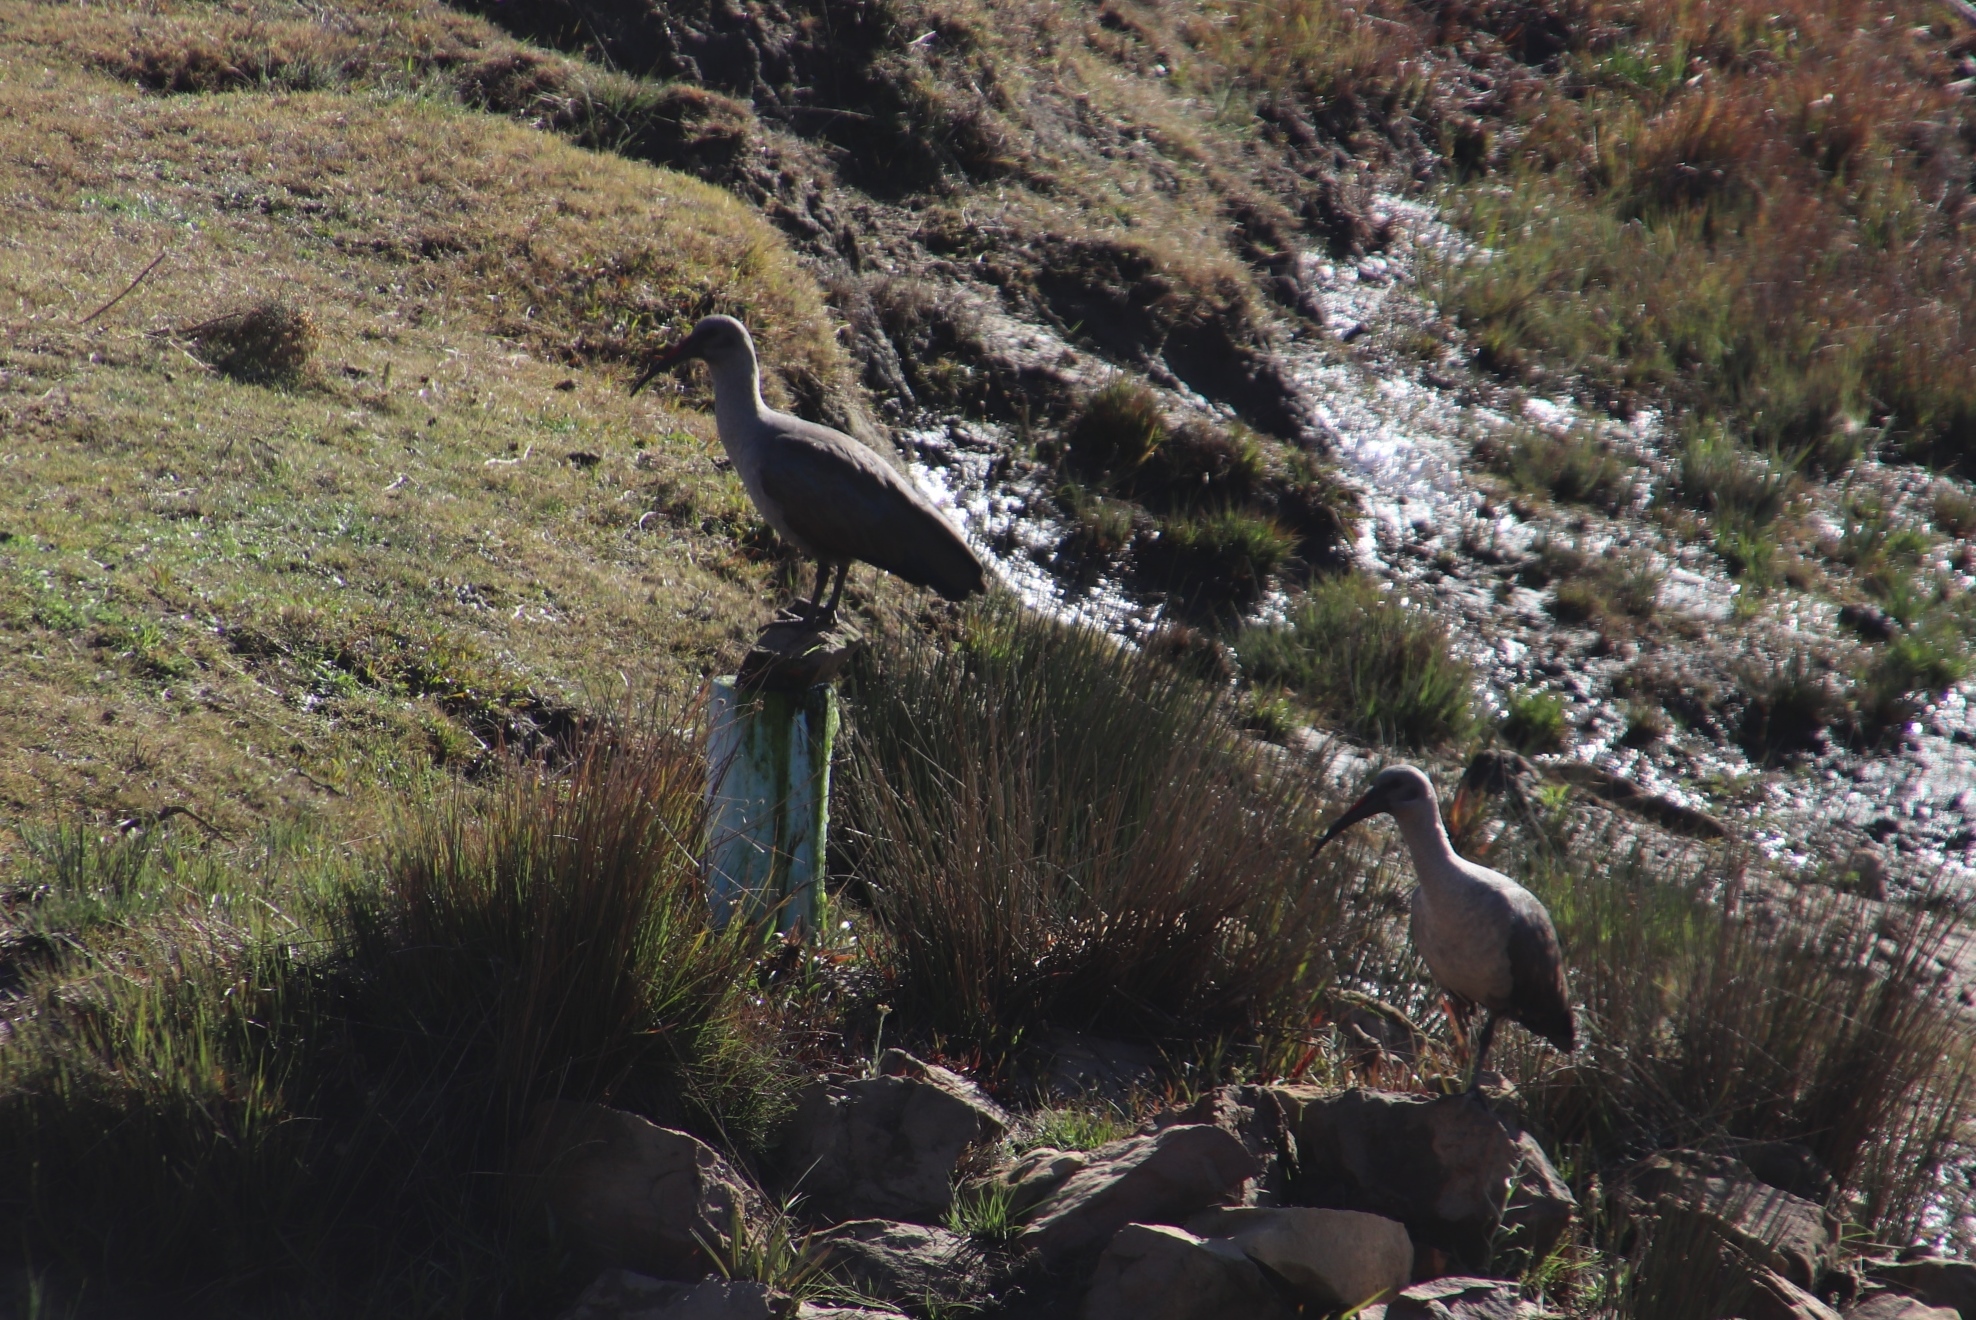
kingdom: Animalia
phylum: Chordata
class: Aves
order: Pelecaniformes
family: Threskiornithidae
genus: Bostrychia
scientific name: Bostrychia hagedash
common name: Hadada ibis
